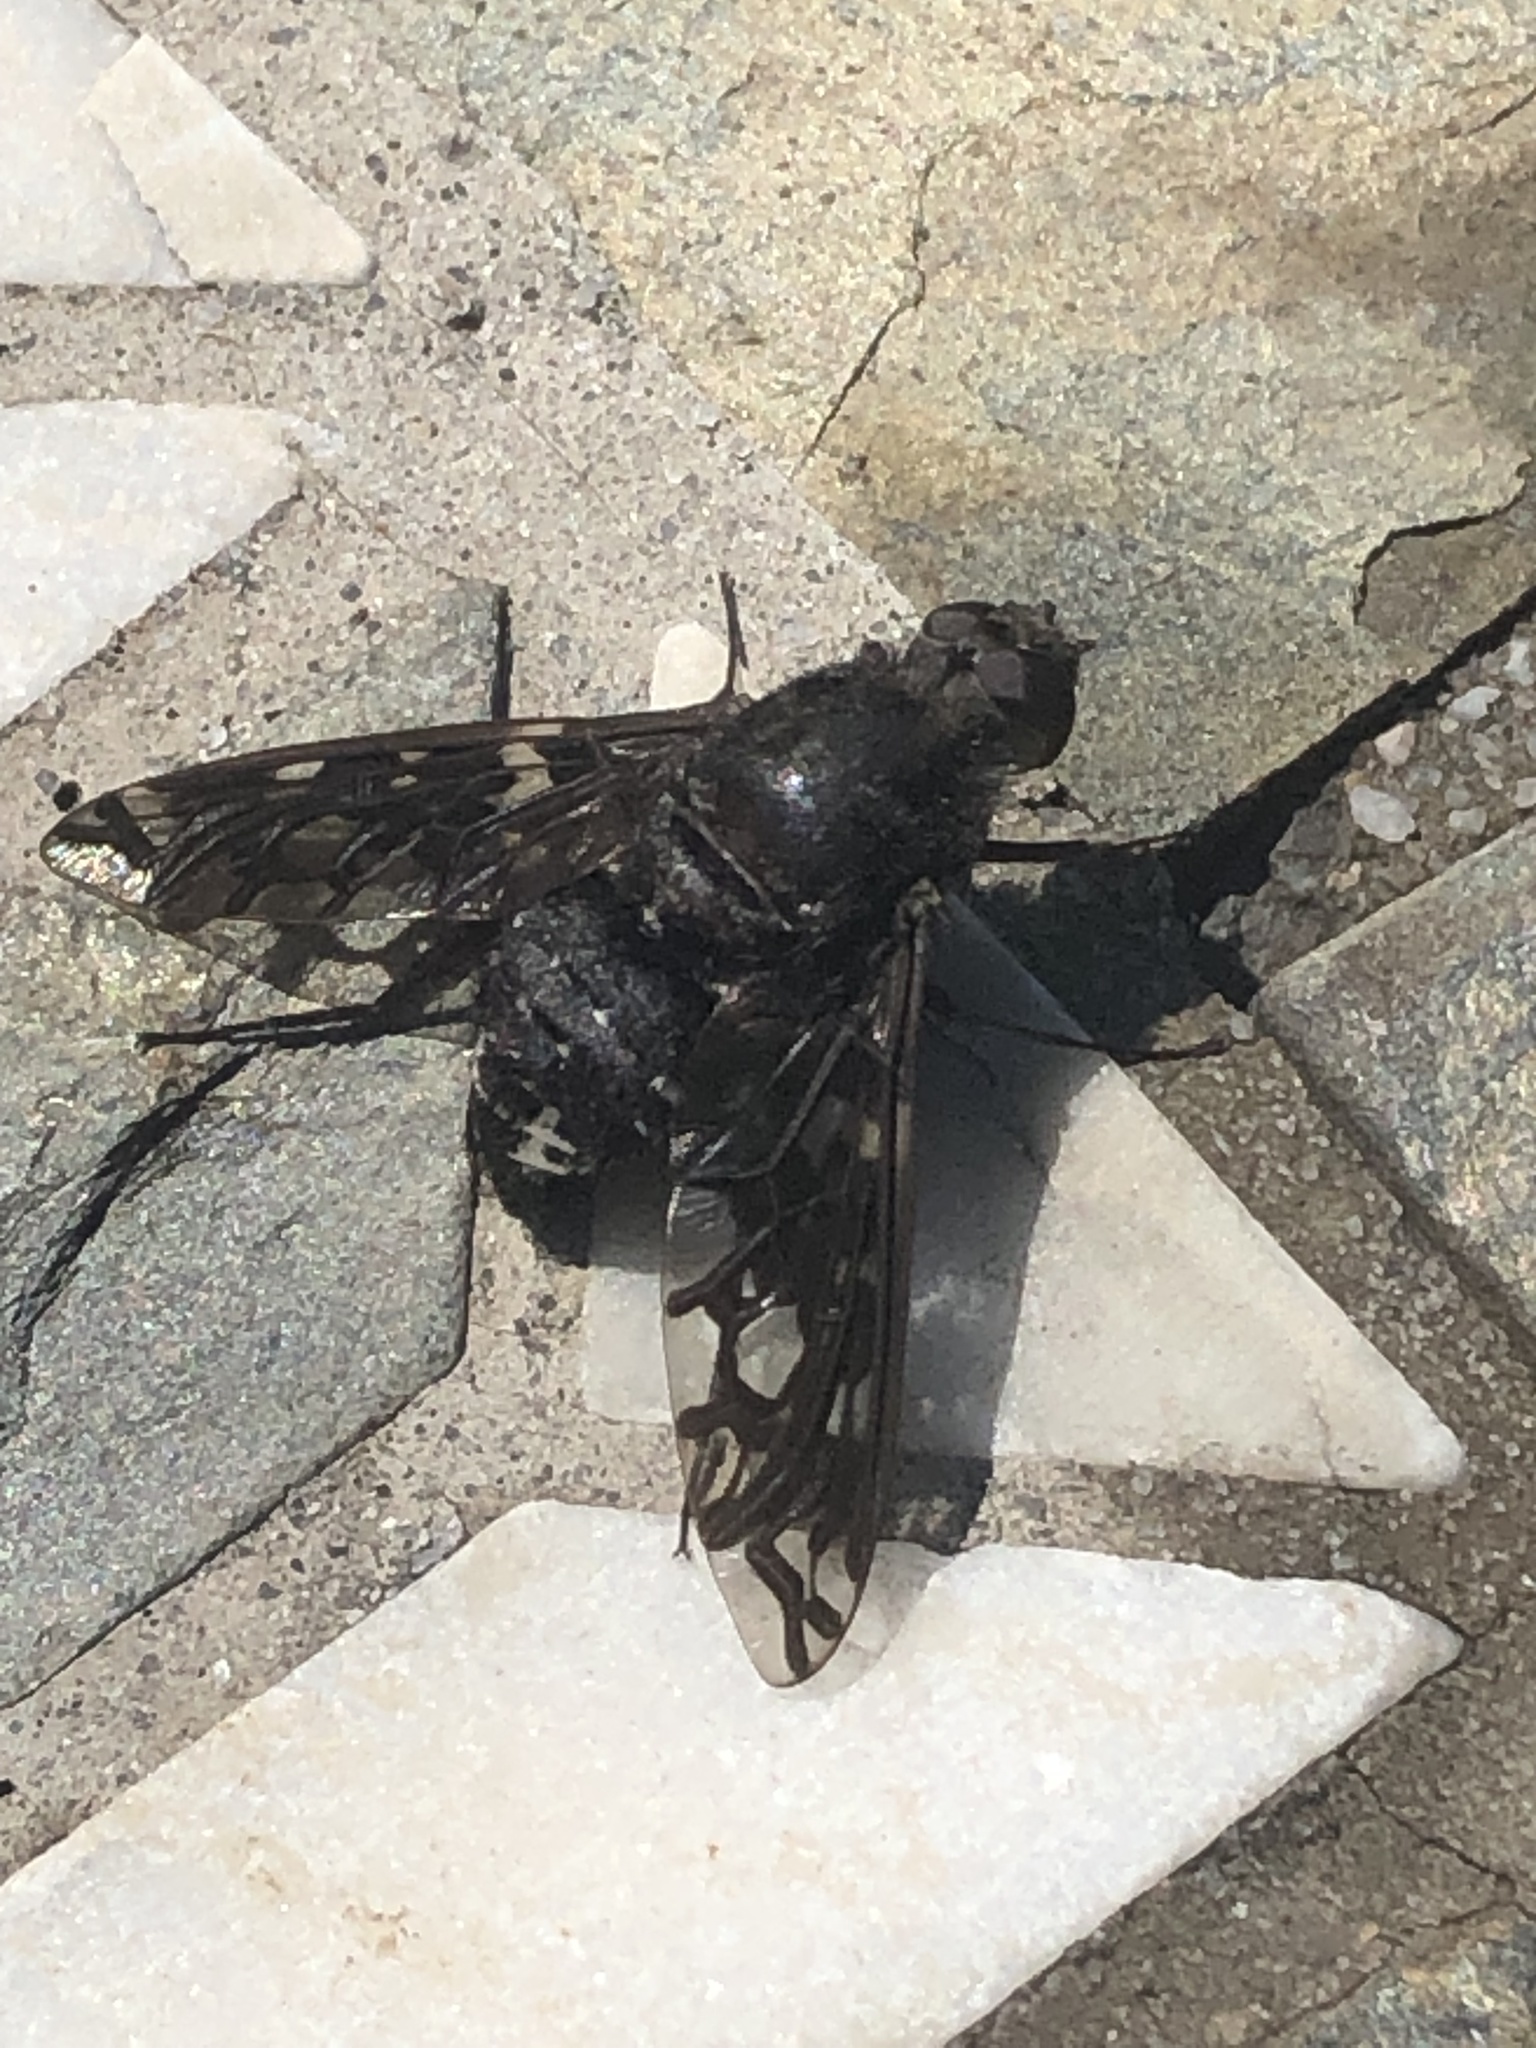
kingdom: Animalia
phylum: Arthropoda
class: Insecta
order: Diptera
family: Bombyliidae
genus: Xenox
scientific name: Xenox tigrinus
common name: Tiger bee fly
